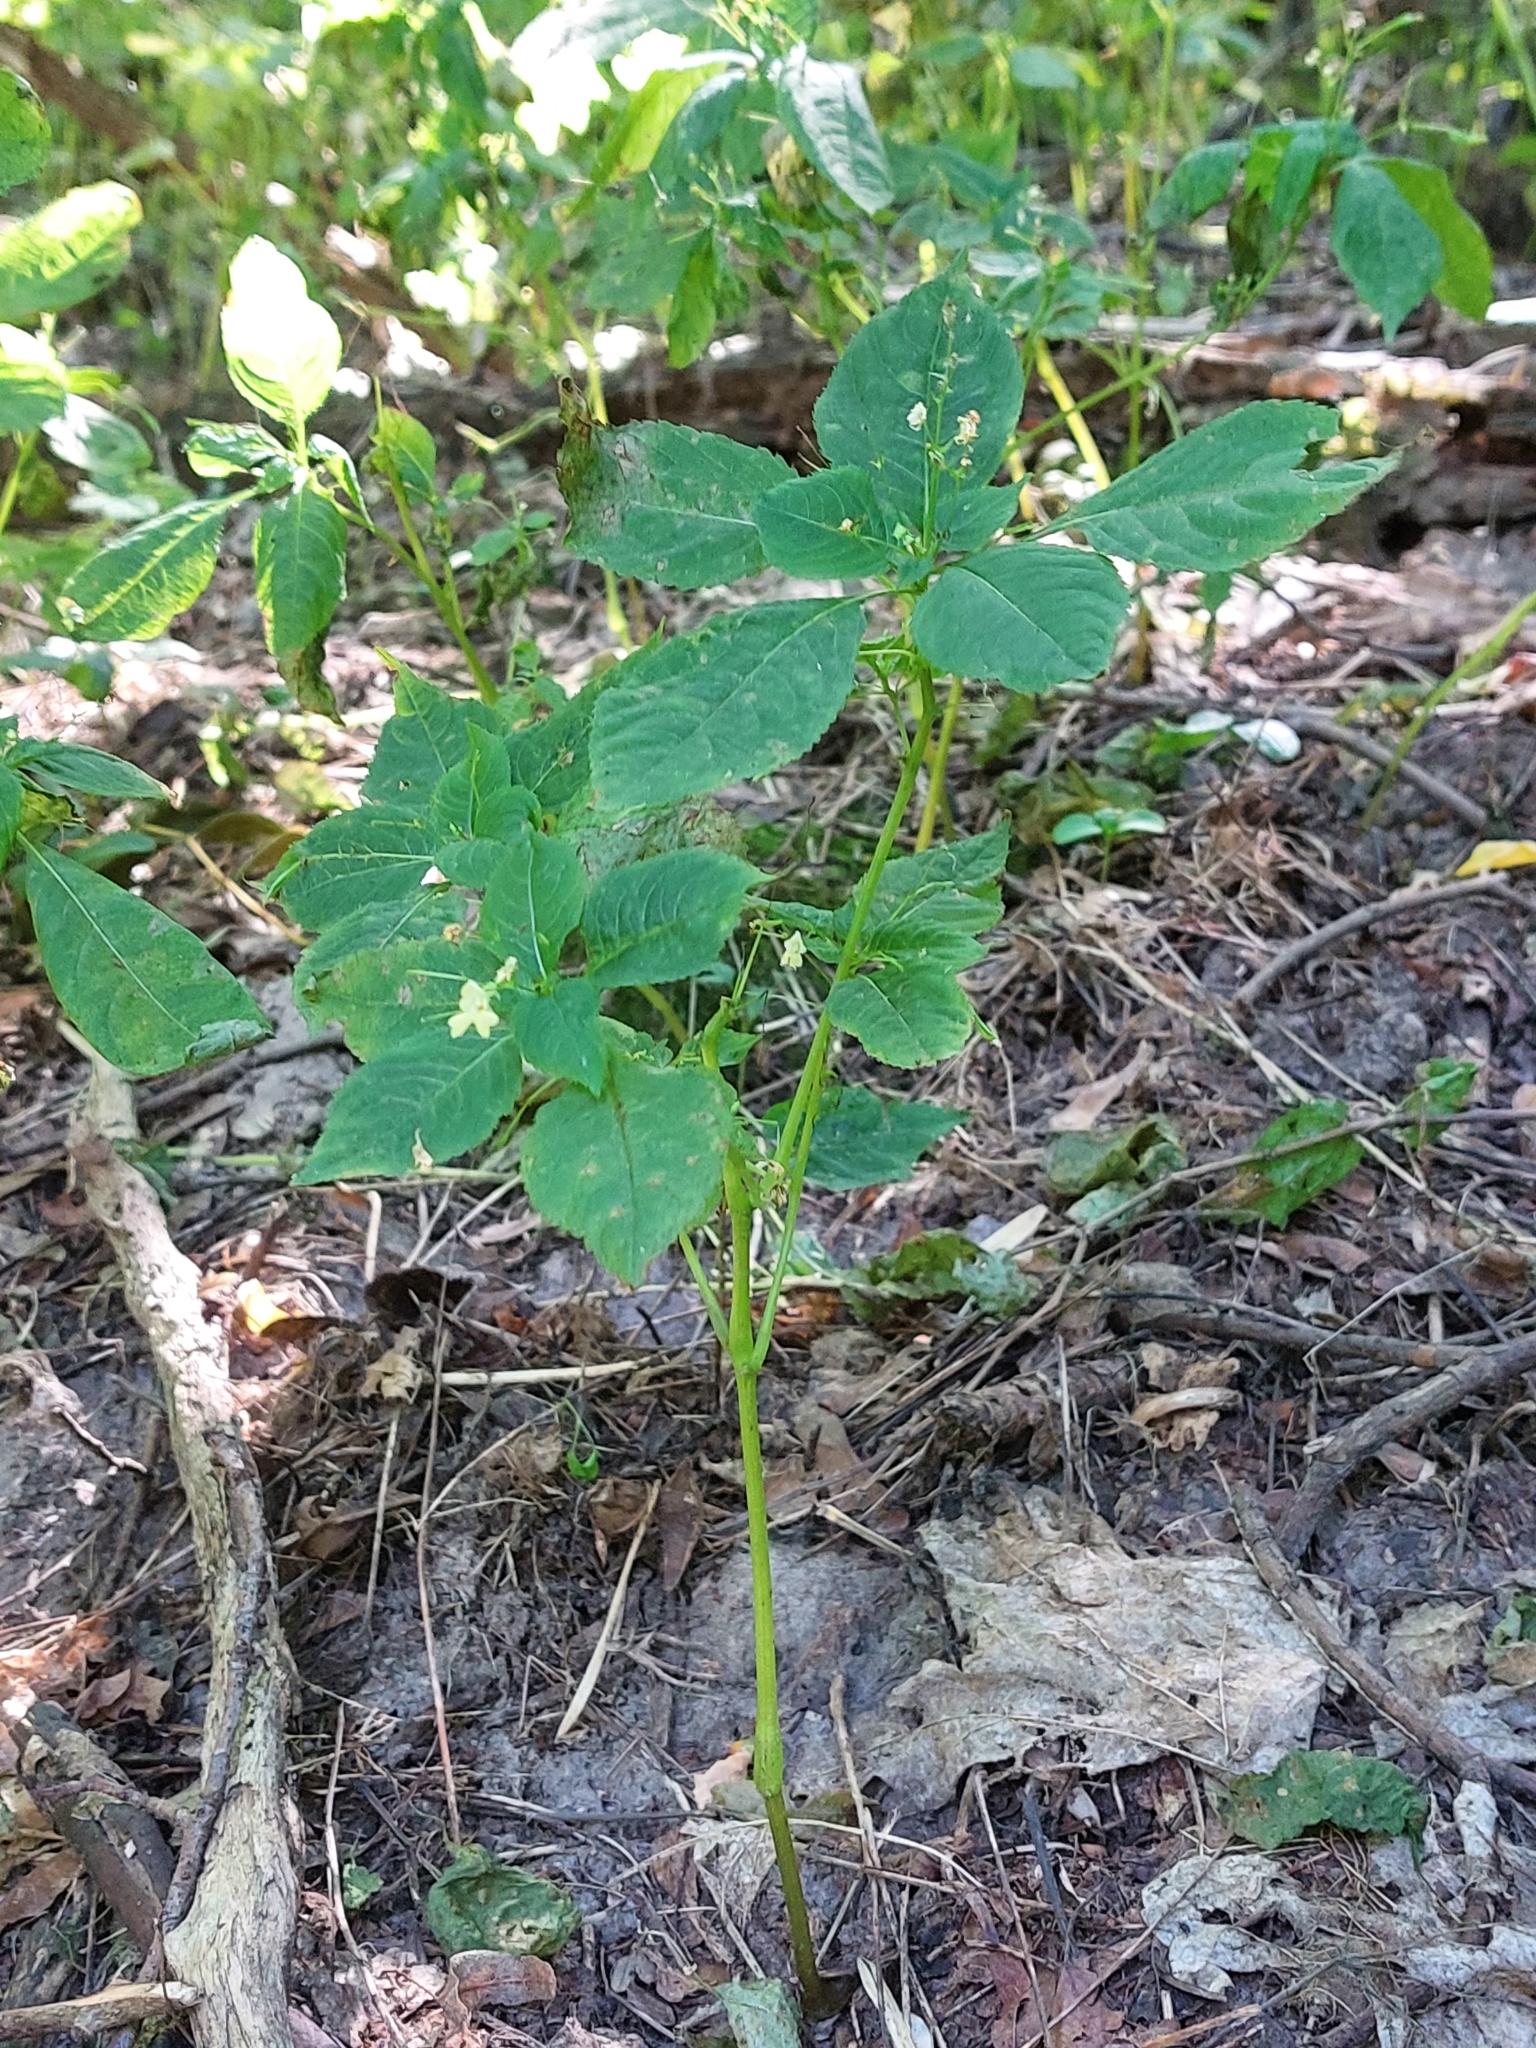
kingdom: Plantae
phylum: Tracheophyta
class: Magnoliopsida
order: Ericales
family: Balsaminaceae
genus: Impatiens
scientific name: Impatiens parviflora
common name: Small balsam
